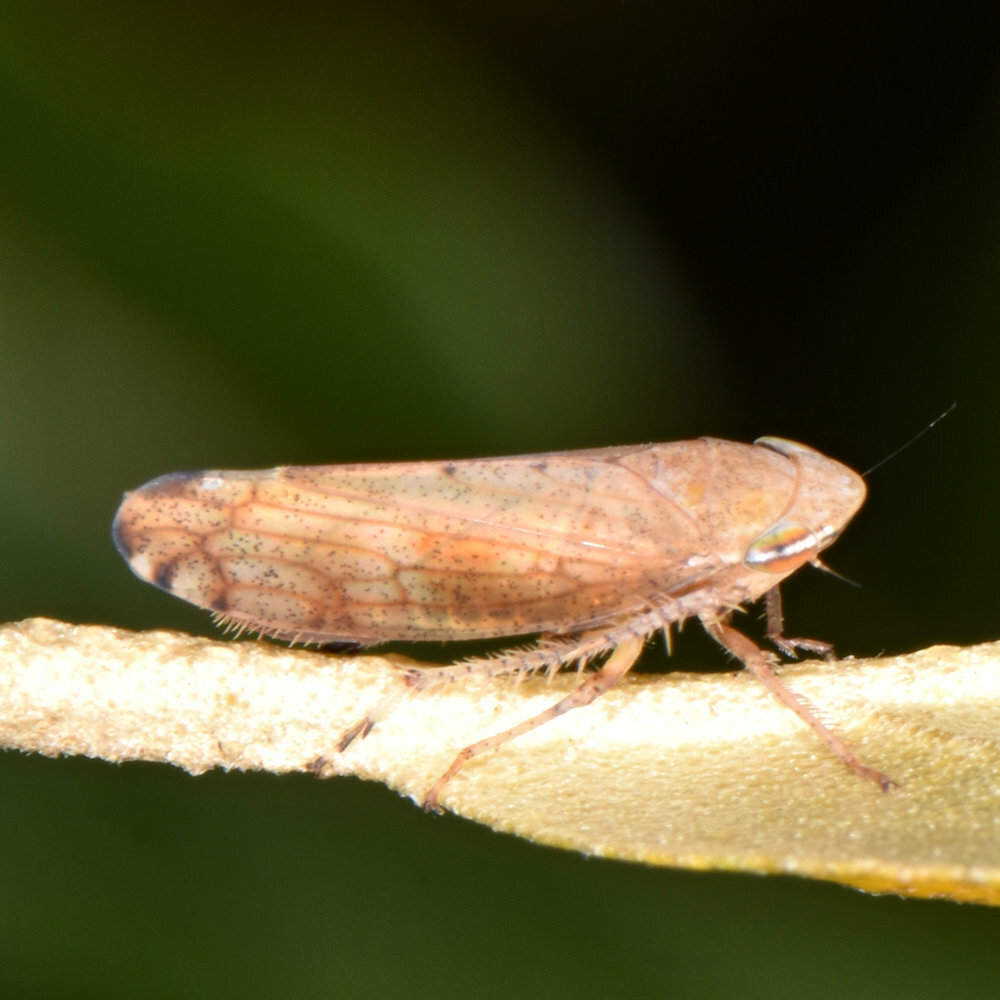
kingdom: Animalia
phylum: Arthropoda
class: Insecta
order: Hemiptera
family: Cicadellidae
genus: Fieberiella
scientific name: Fieberiella florii
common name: Flor’s leafhopper
